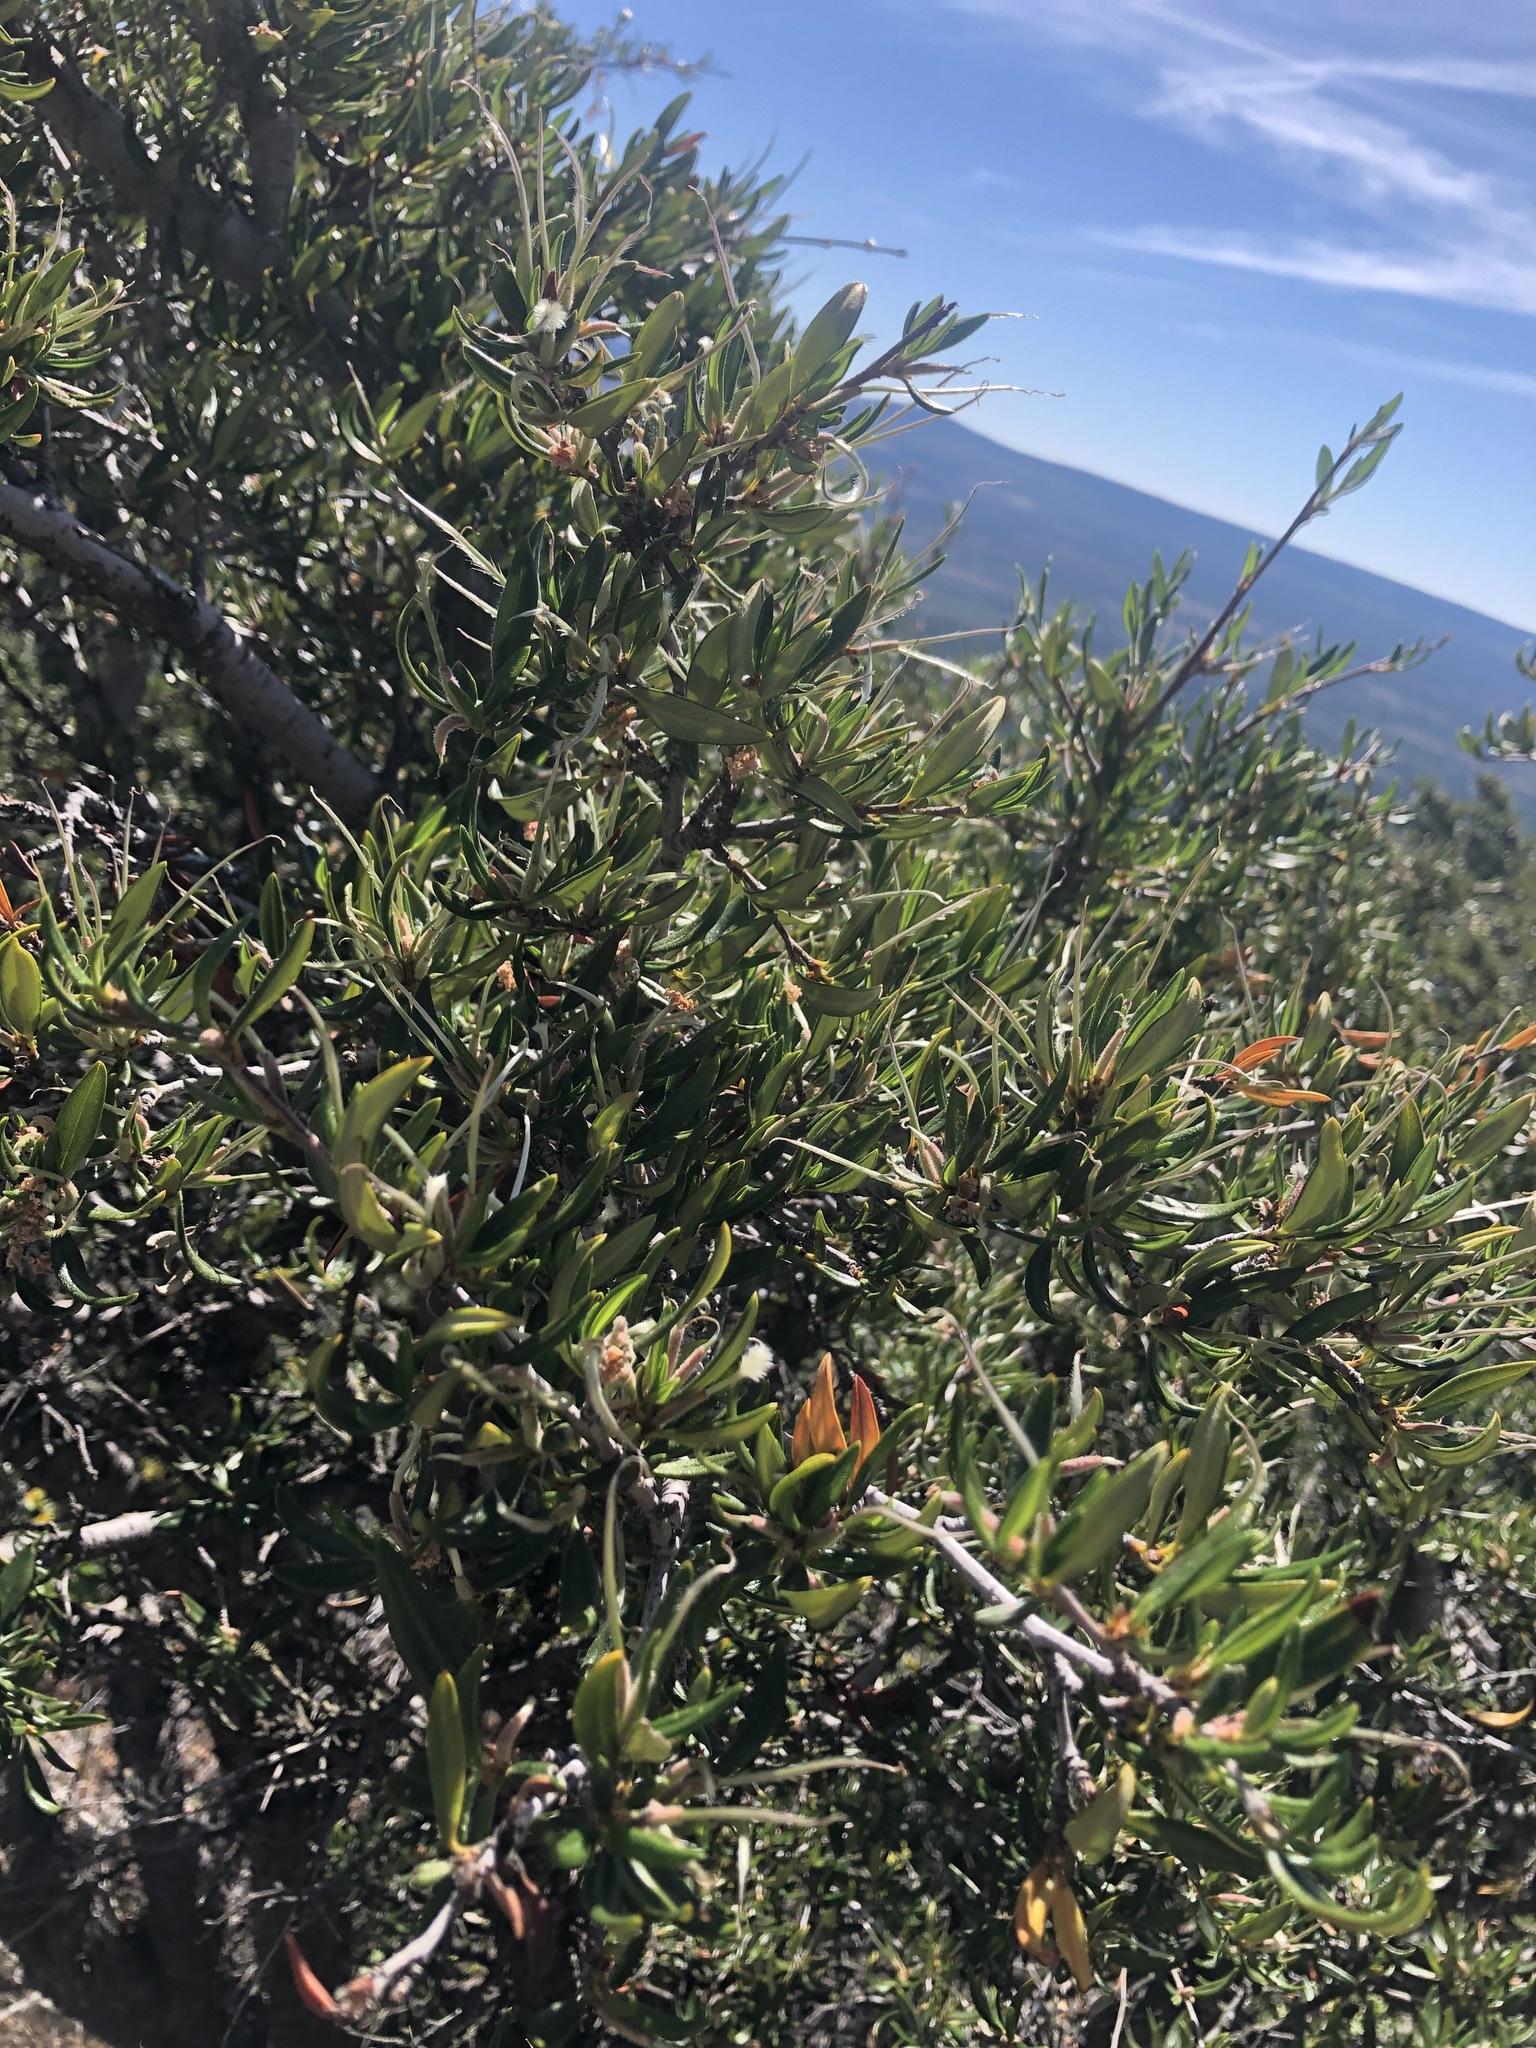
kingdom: Plantae
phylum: Tracheophyta
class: Magnoliopsida
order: Rosales
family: Rosaceae
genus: Cercocarpus
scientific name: Cercocarpus ledifolius
